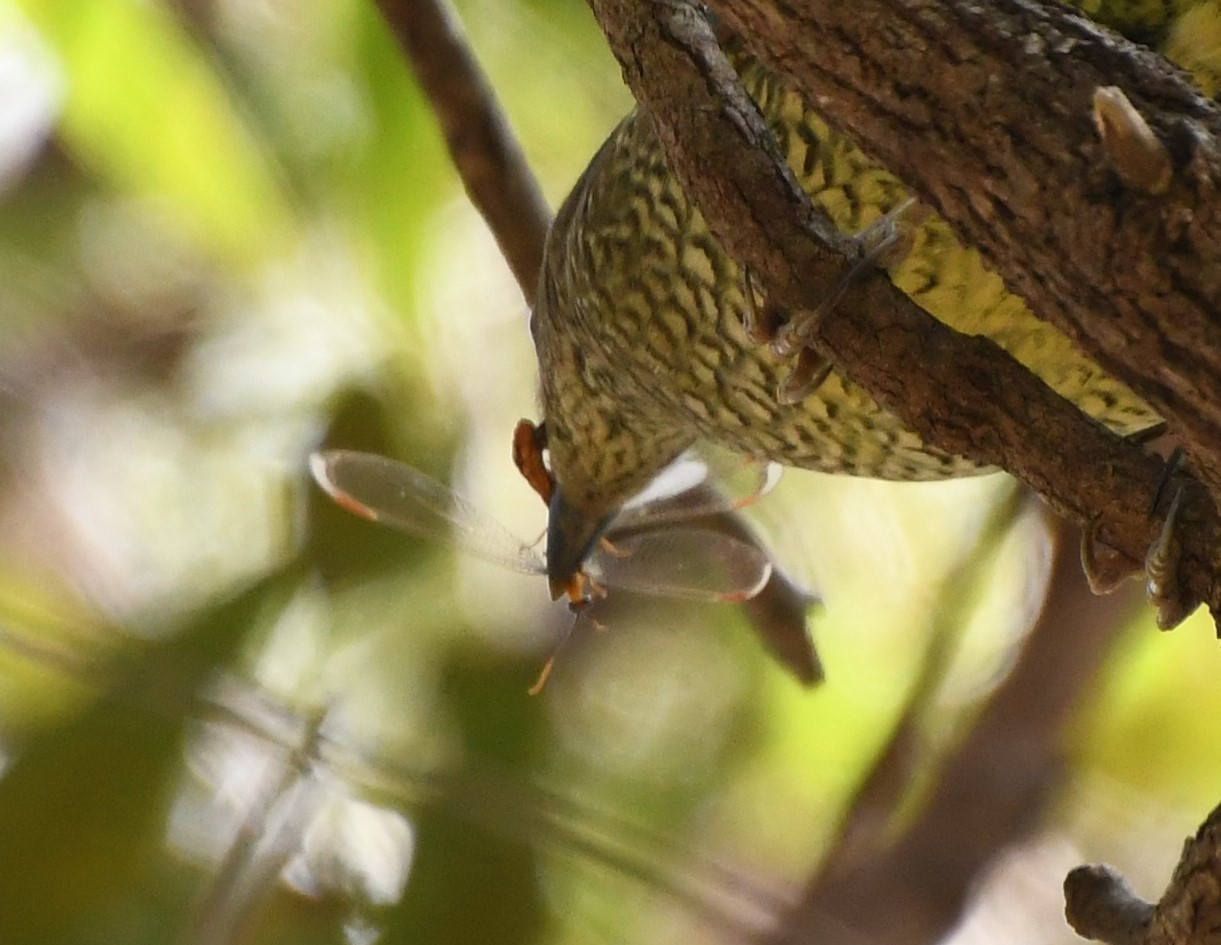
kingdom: Animalia
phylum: Arthropoda
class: Insecta
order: Neuroptera
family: Nymphidae
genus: Nymphes
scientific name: Nymphes myrmeleonoides
